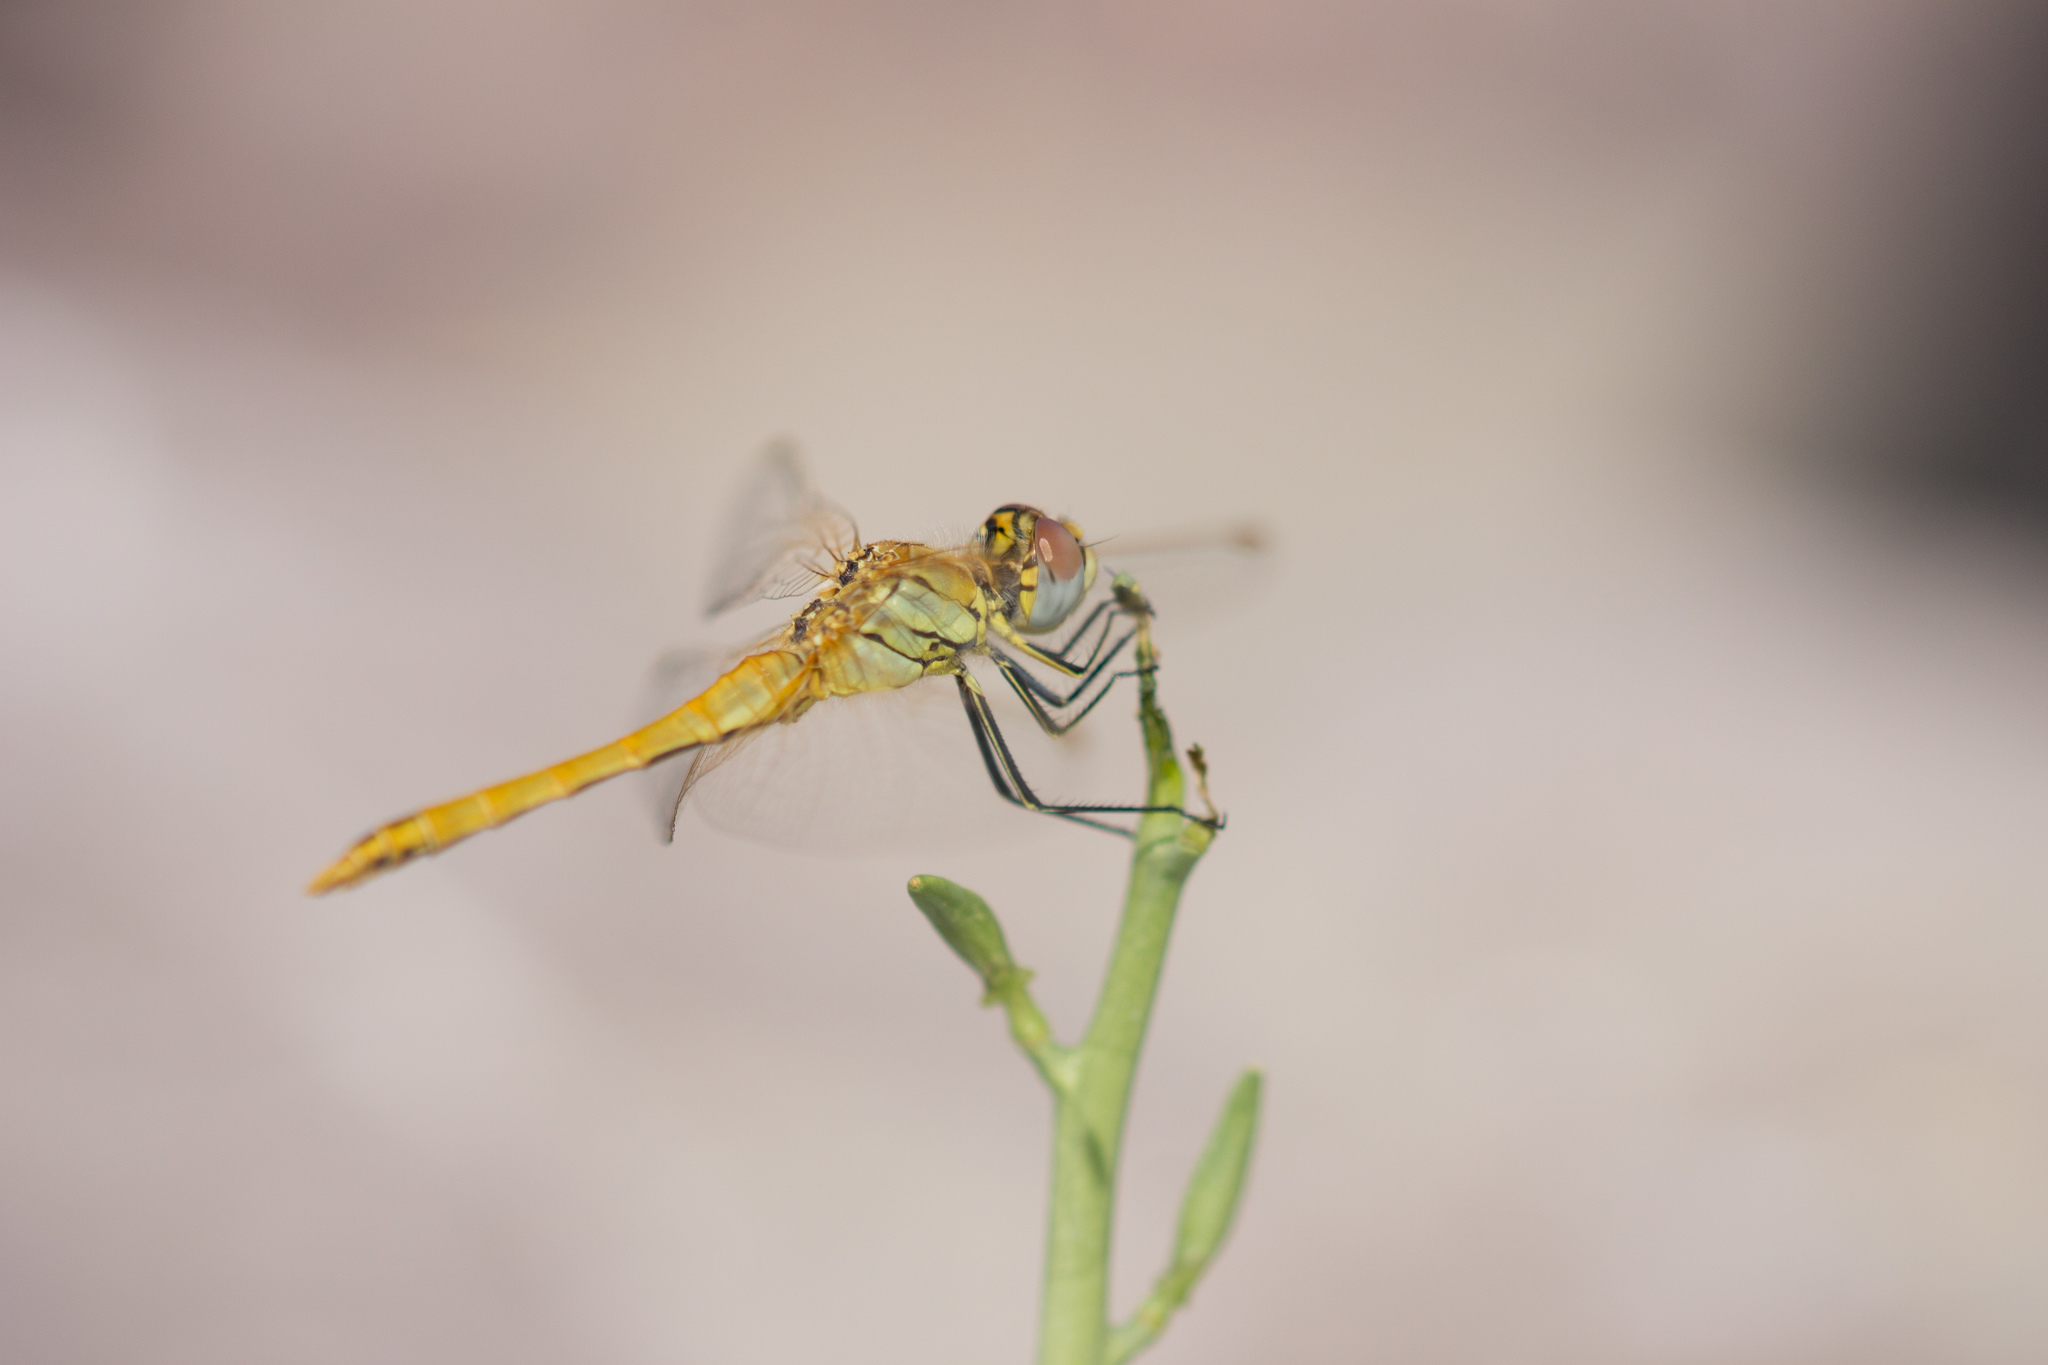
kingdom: Animalia
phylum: Arthropoda
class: Insecta
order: Odonata
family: Libellulidae
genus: Sympetrum
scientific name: Sympetrum fonscolombii
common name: Red-veined darter
